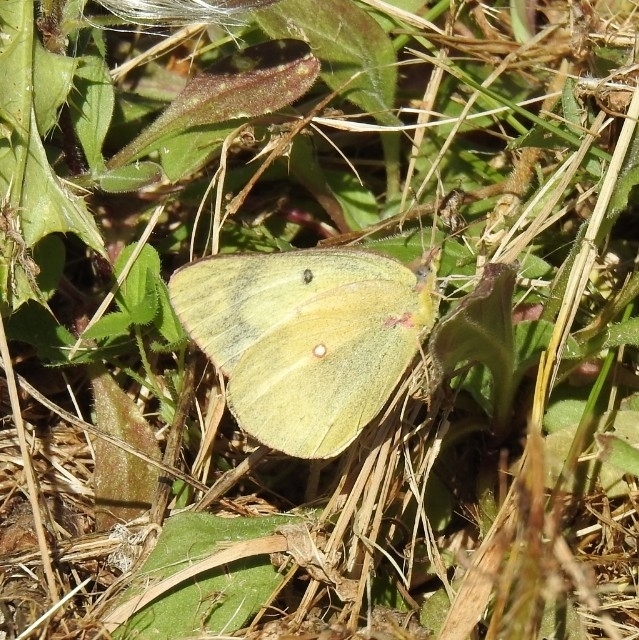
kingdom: Animalia
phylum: Arthropoda
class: Insecta
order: Lepidoptera
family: Pieridae
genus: Colias
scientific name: Colias philodice
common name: Clouded sulphur
